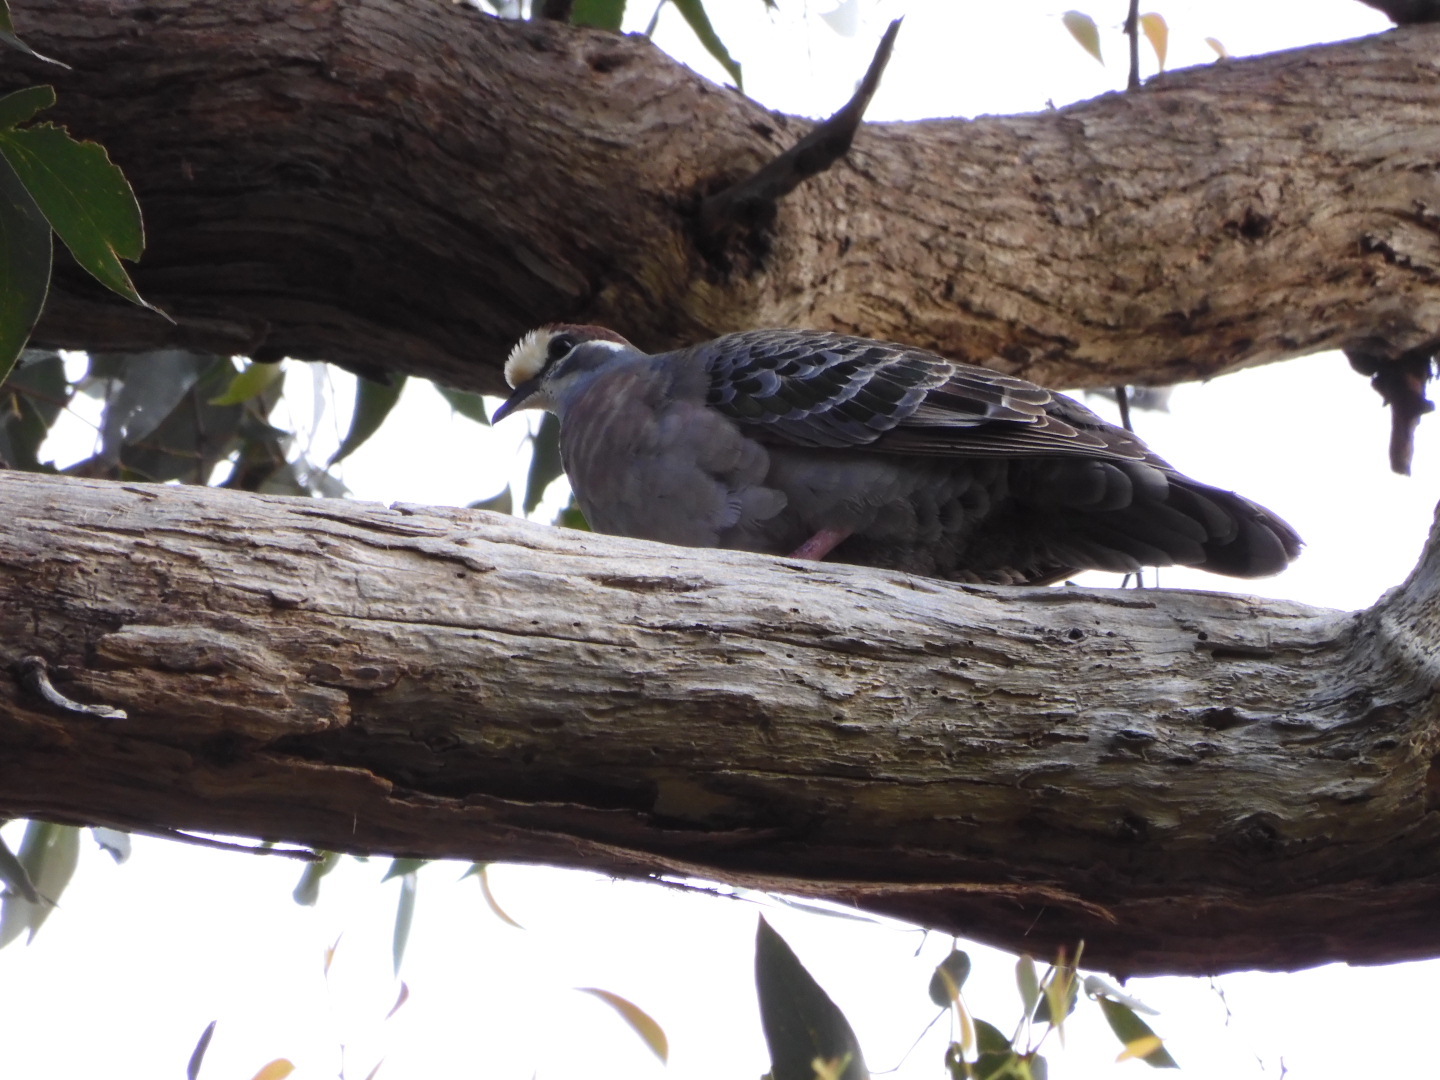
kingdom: Animalia
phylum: Chordata
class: Aves
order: Columbiformes
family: Columbidae
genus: Phaps
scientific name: Phaps chalcoptera
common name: Common bronzewing
